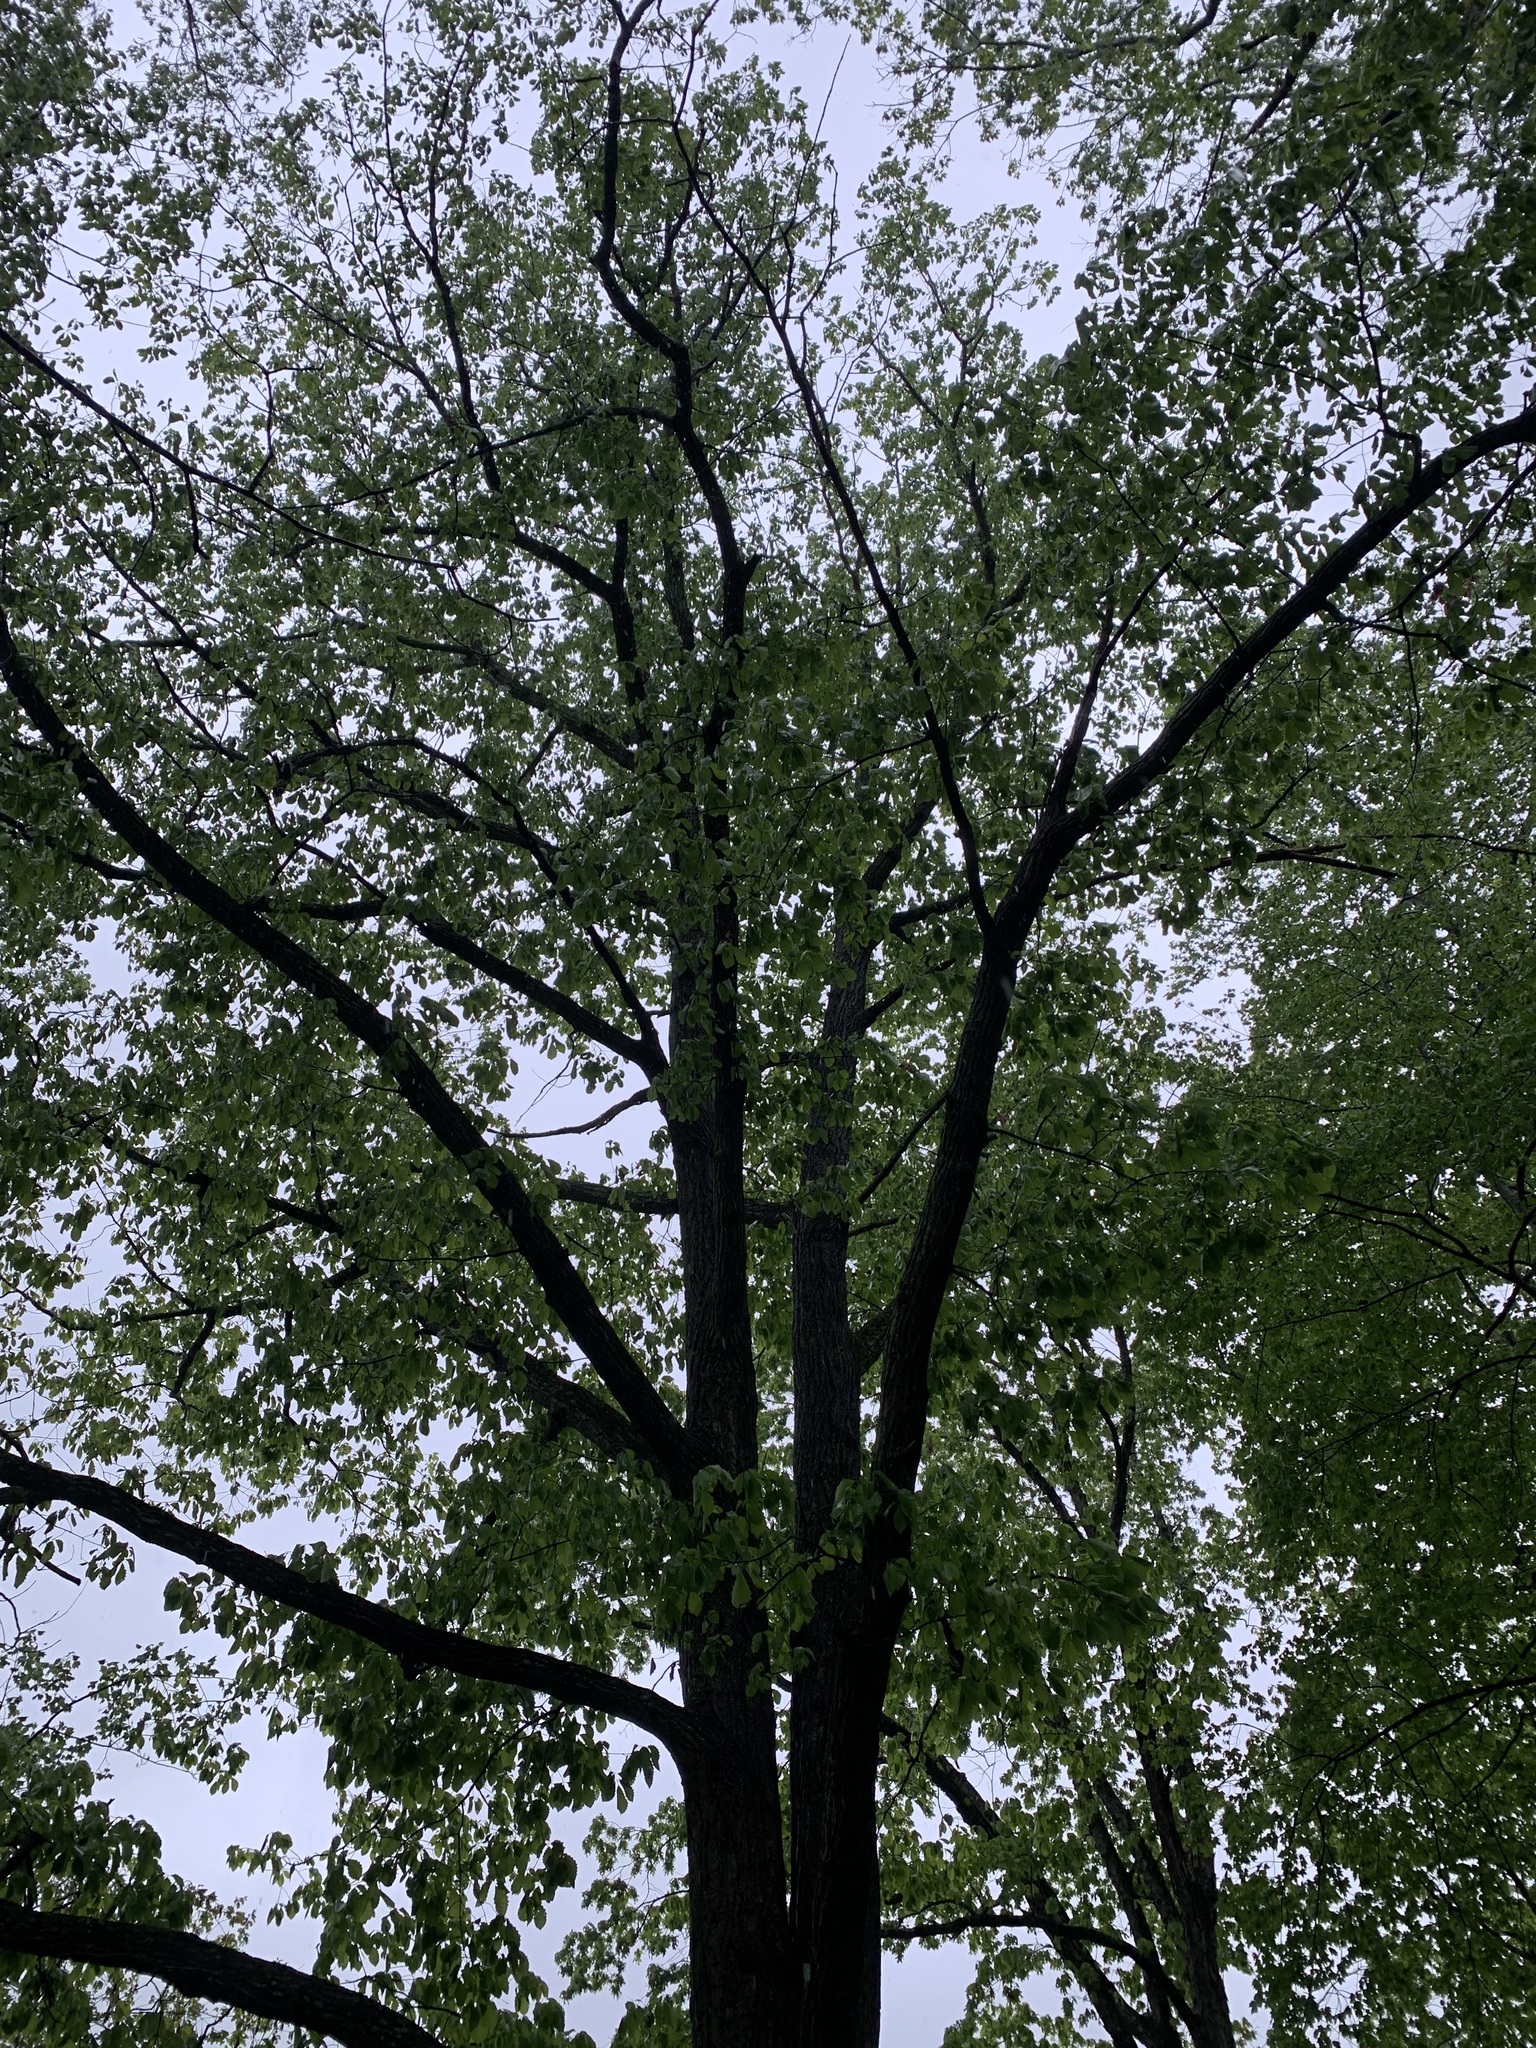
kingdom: Plantae
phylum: Tracheophyta
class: Magnoliopsida
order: Fagales
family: Fagaceae
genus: Quercus
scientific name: Quercus montana
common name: Chestnut oak
